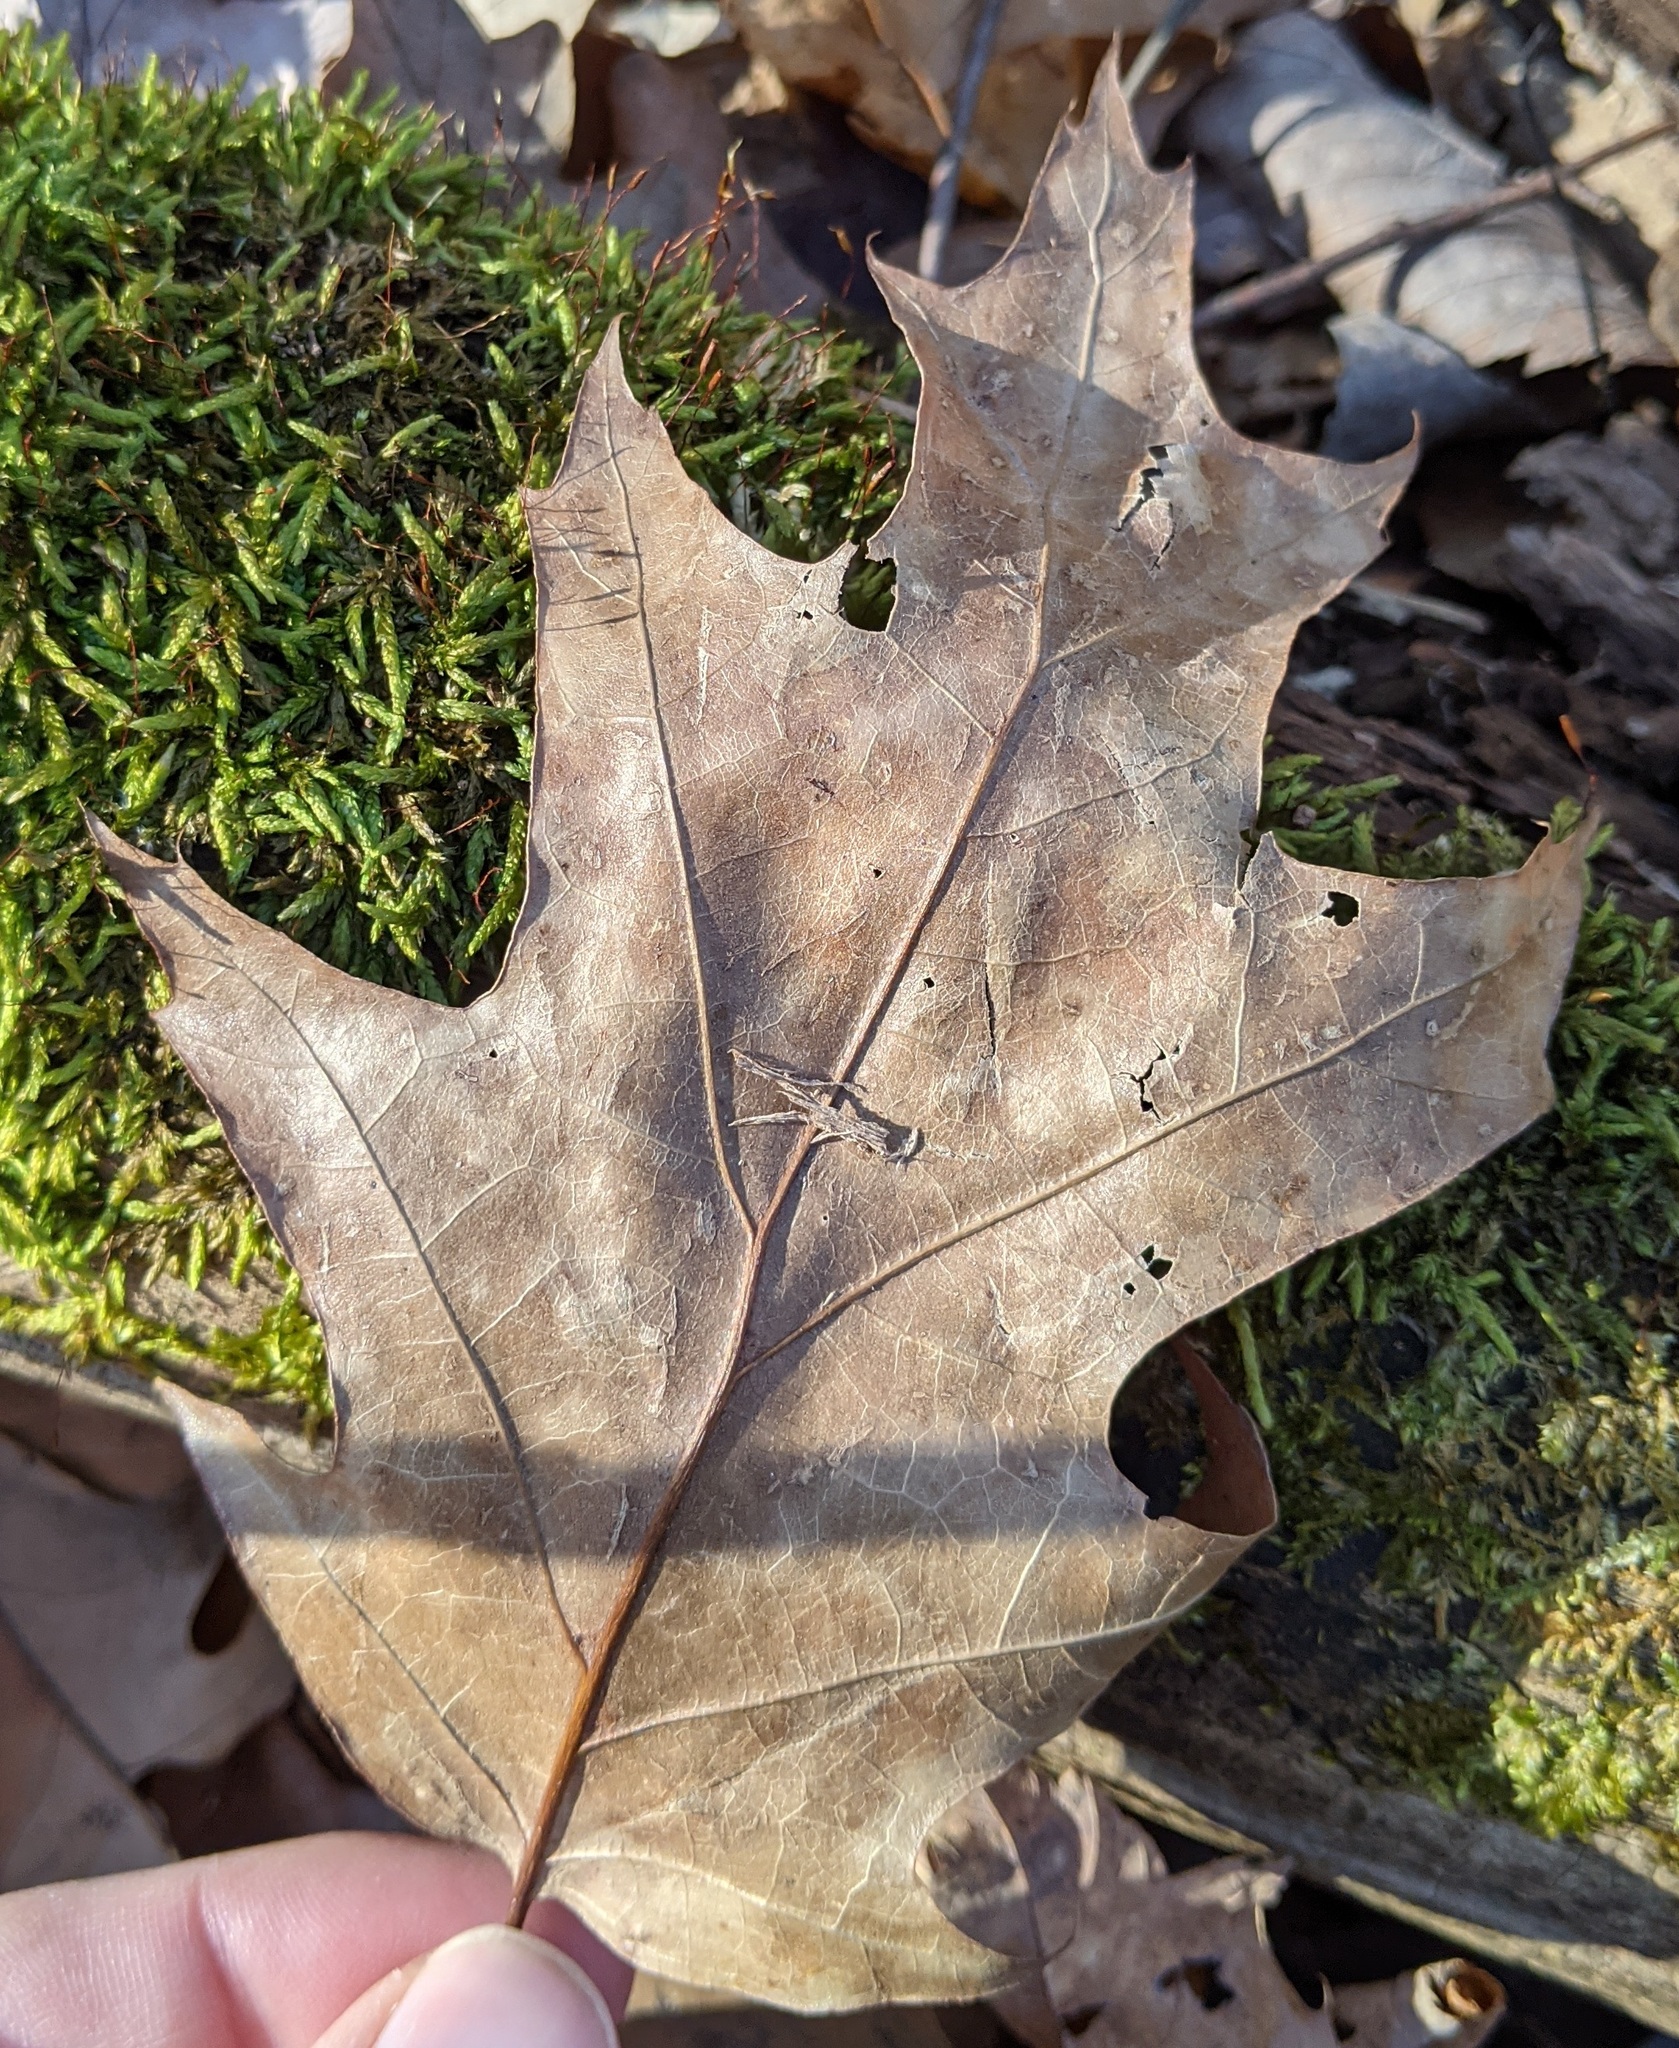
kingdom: Plantae
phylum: Tracheophyta
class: Magnoliopsida
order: Fagales
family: Fagaceae
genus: Quercus
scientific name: Quercus rubra
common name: Red oak
